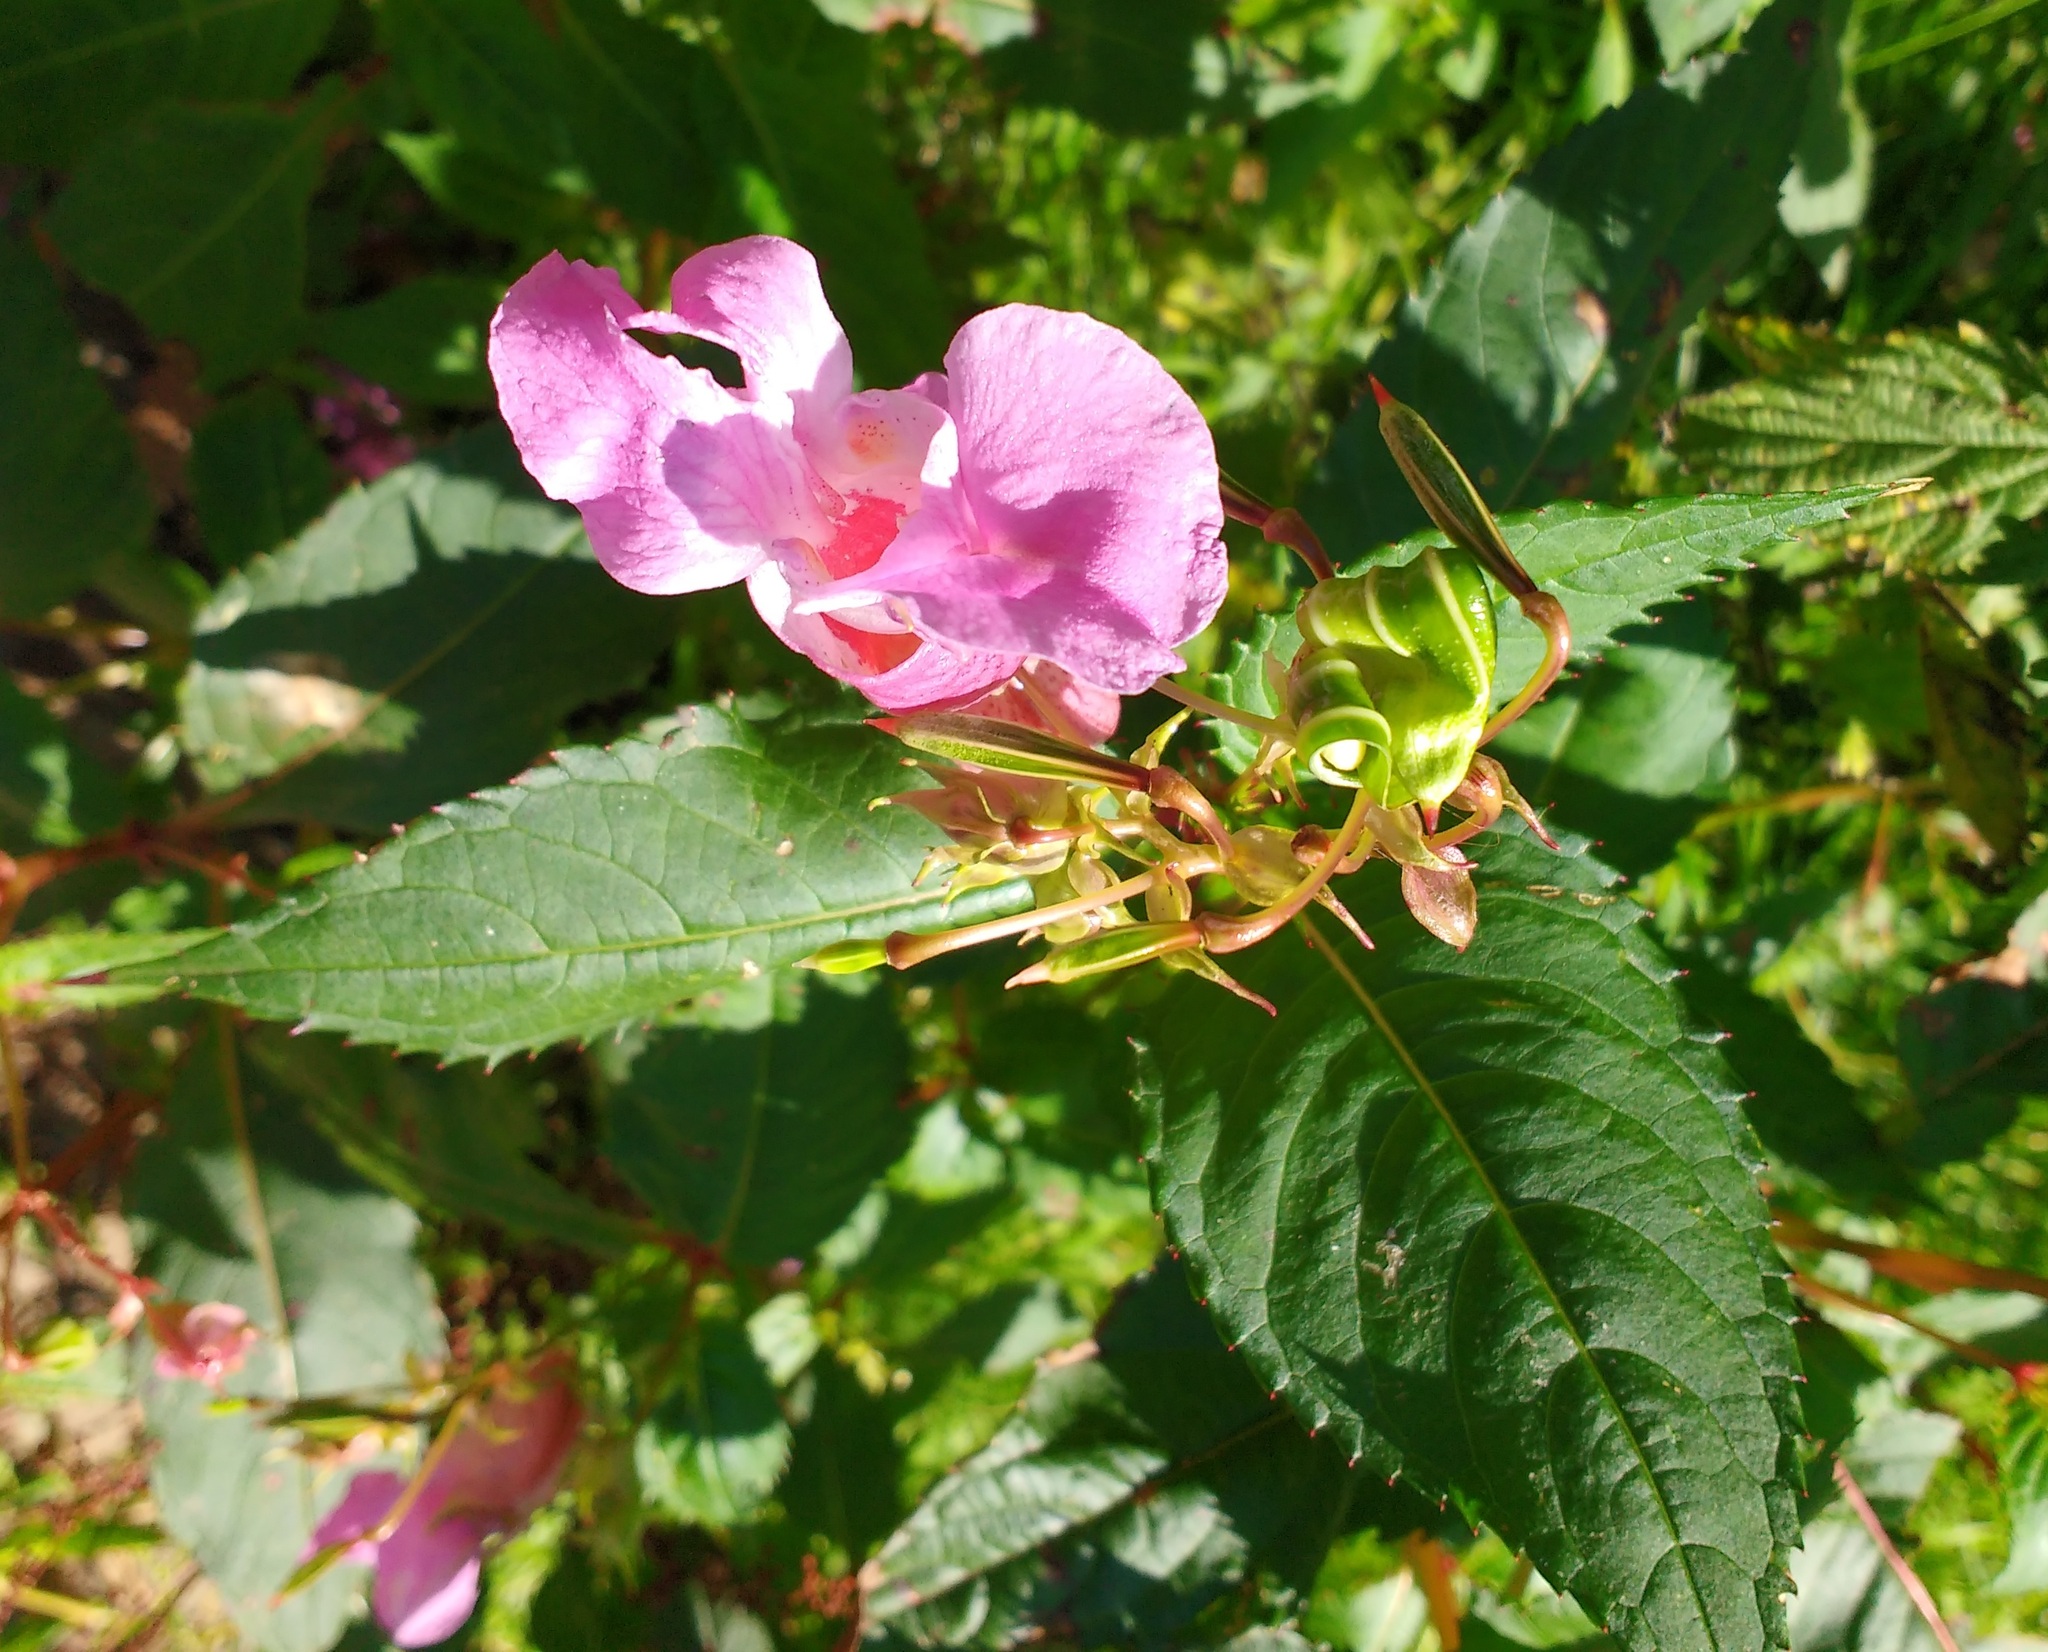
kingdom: Plantae
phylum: Tracheophyta
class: Magnoliopsida
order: Ericales
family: Balsaminaceae
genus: Impatiens
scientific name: Impatiens glandulifera
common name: Himalayan balsam
